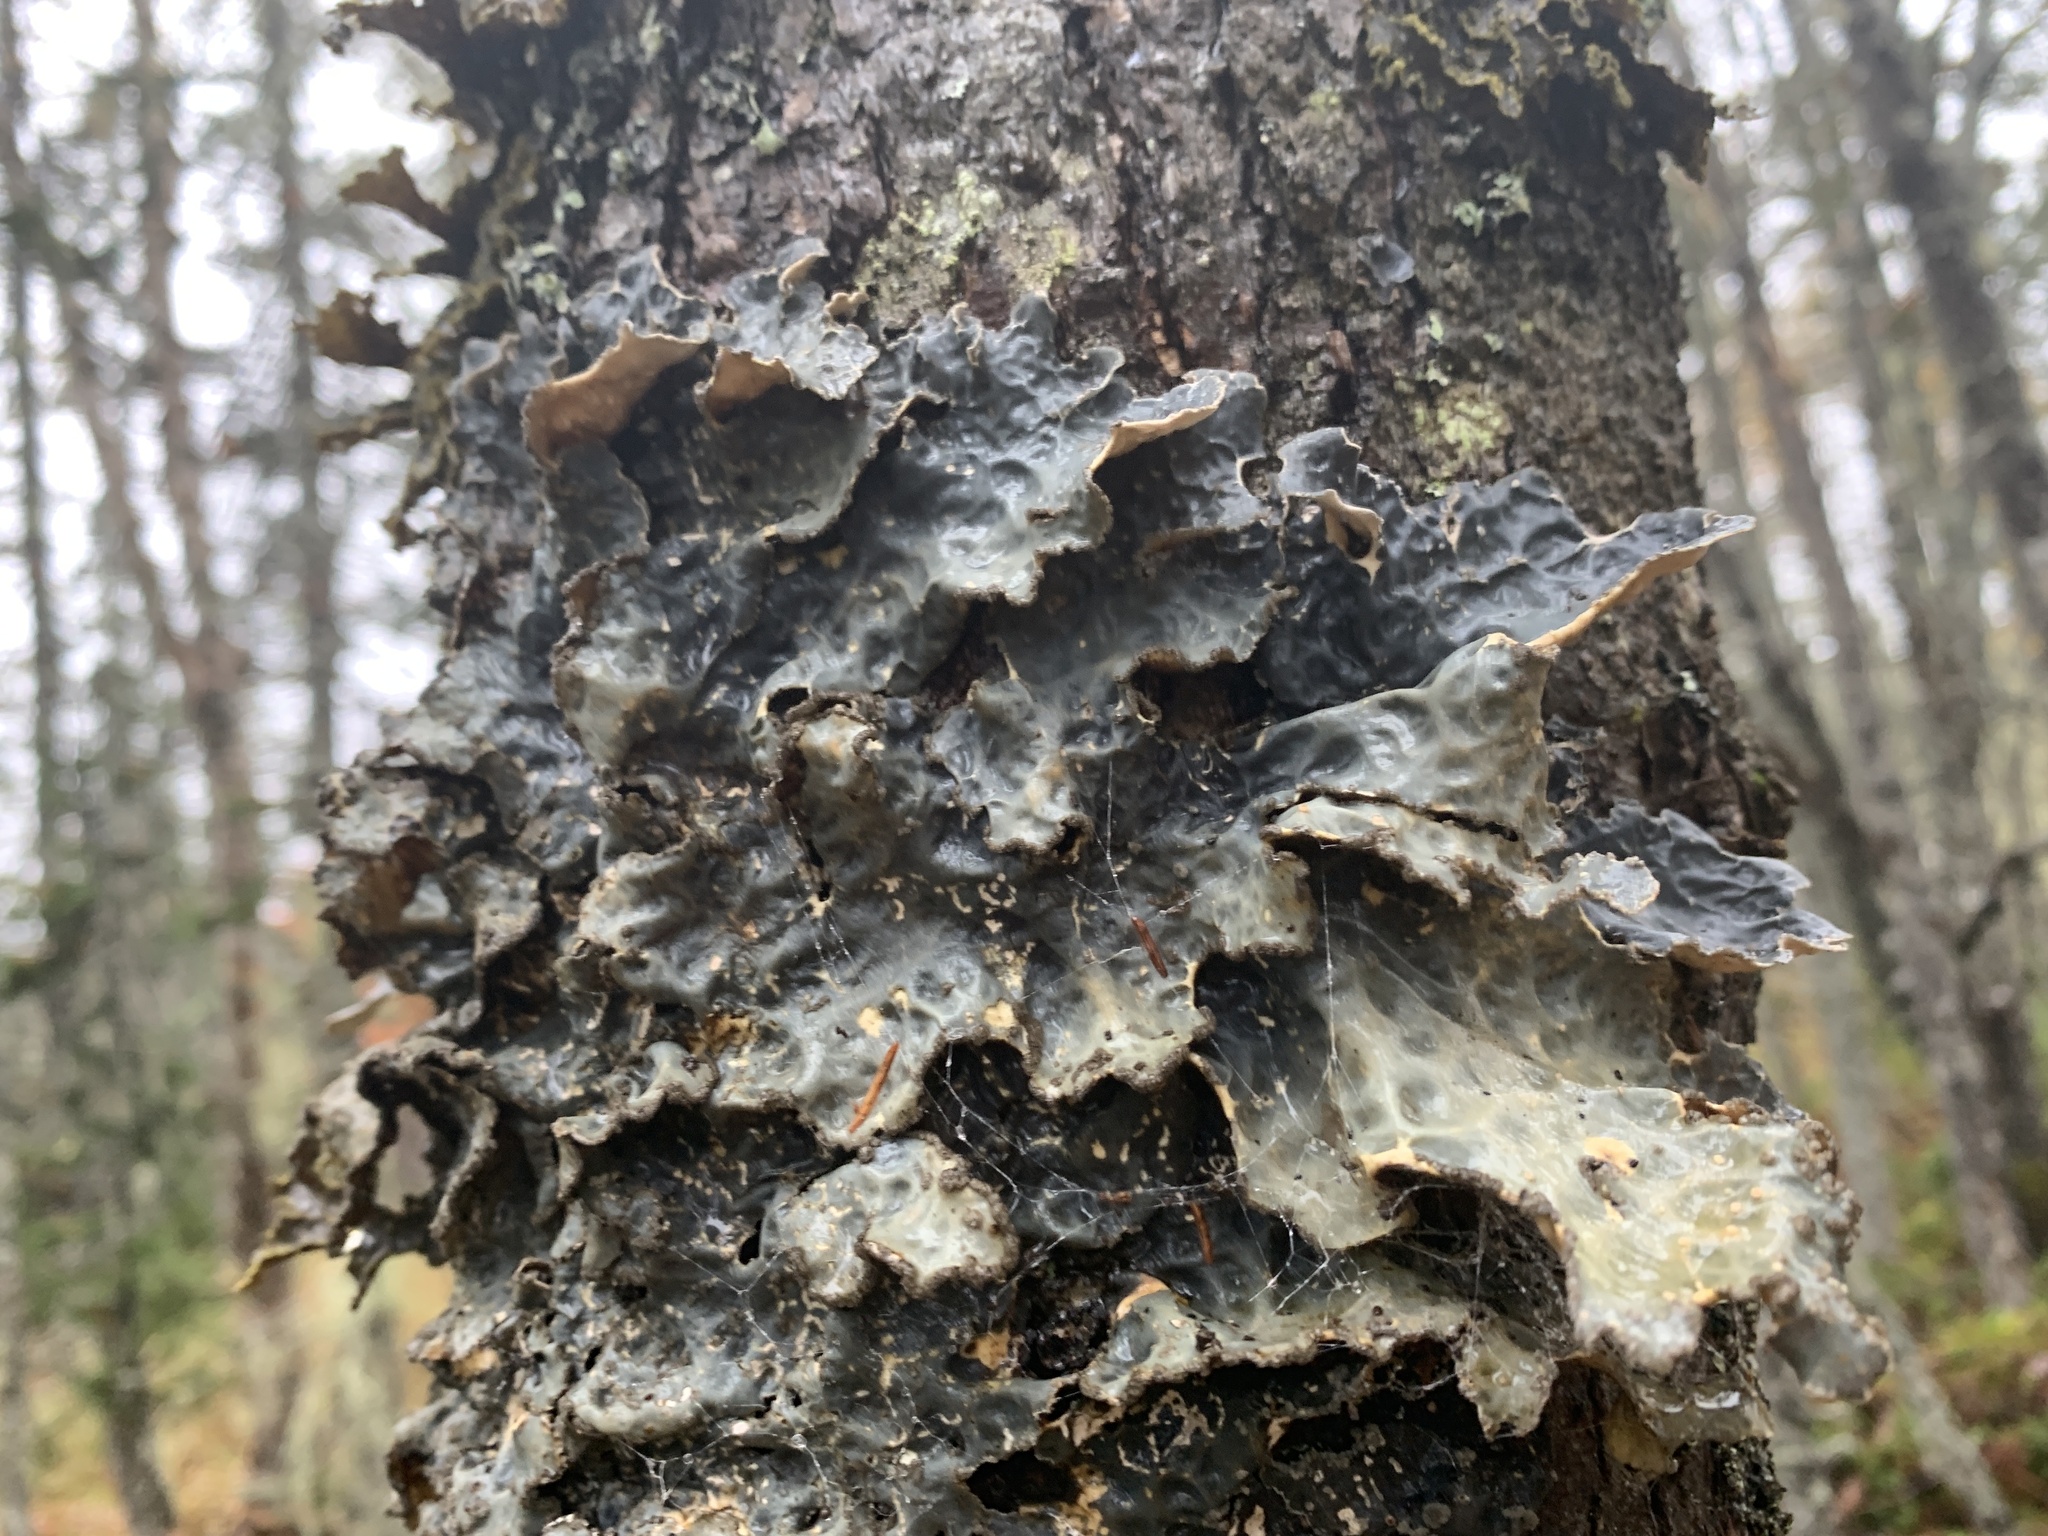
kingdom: Fungi
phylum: Ascomycota
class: Lecanoromycetes
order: Peltigerales
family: Lobariaceae
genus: Lobarina
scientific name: Lobarina scrobiculata
